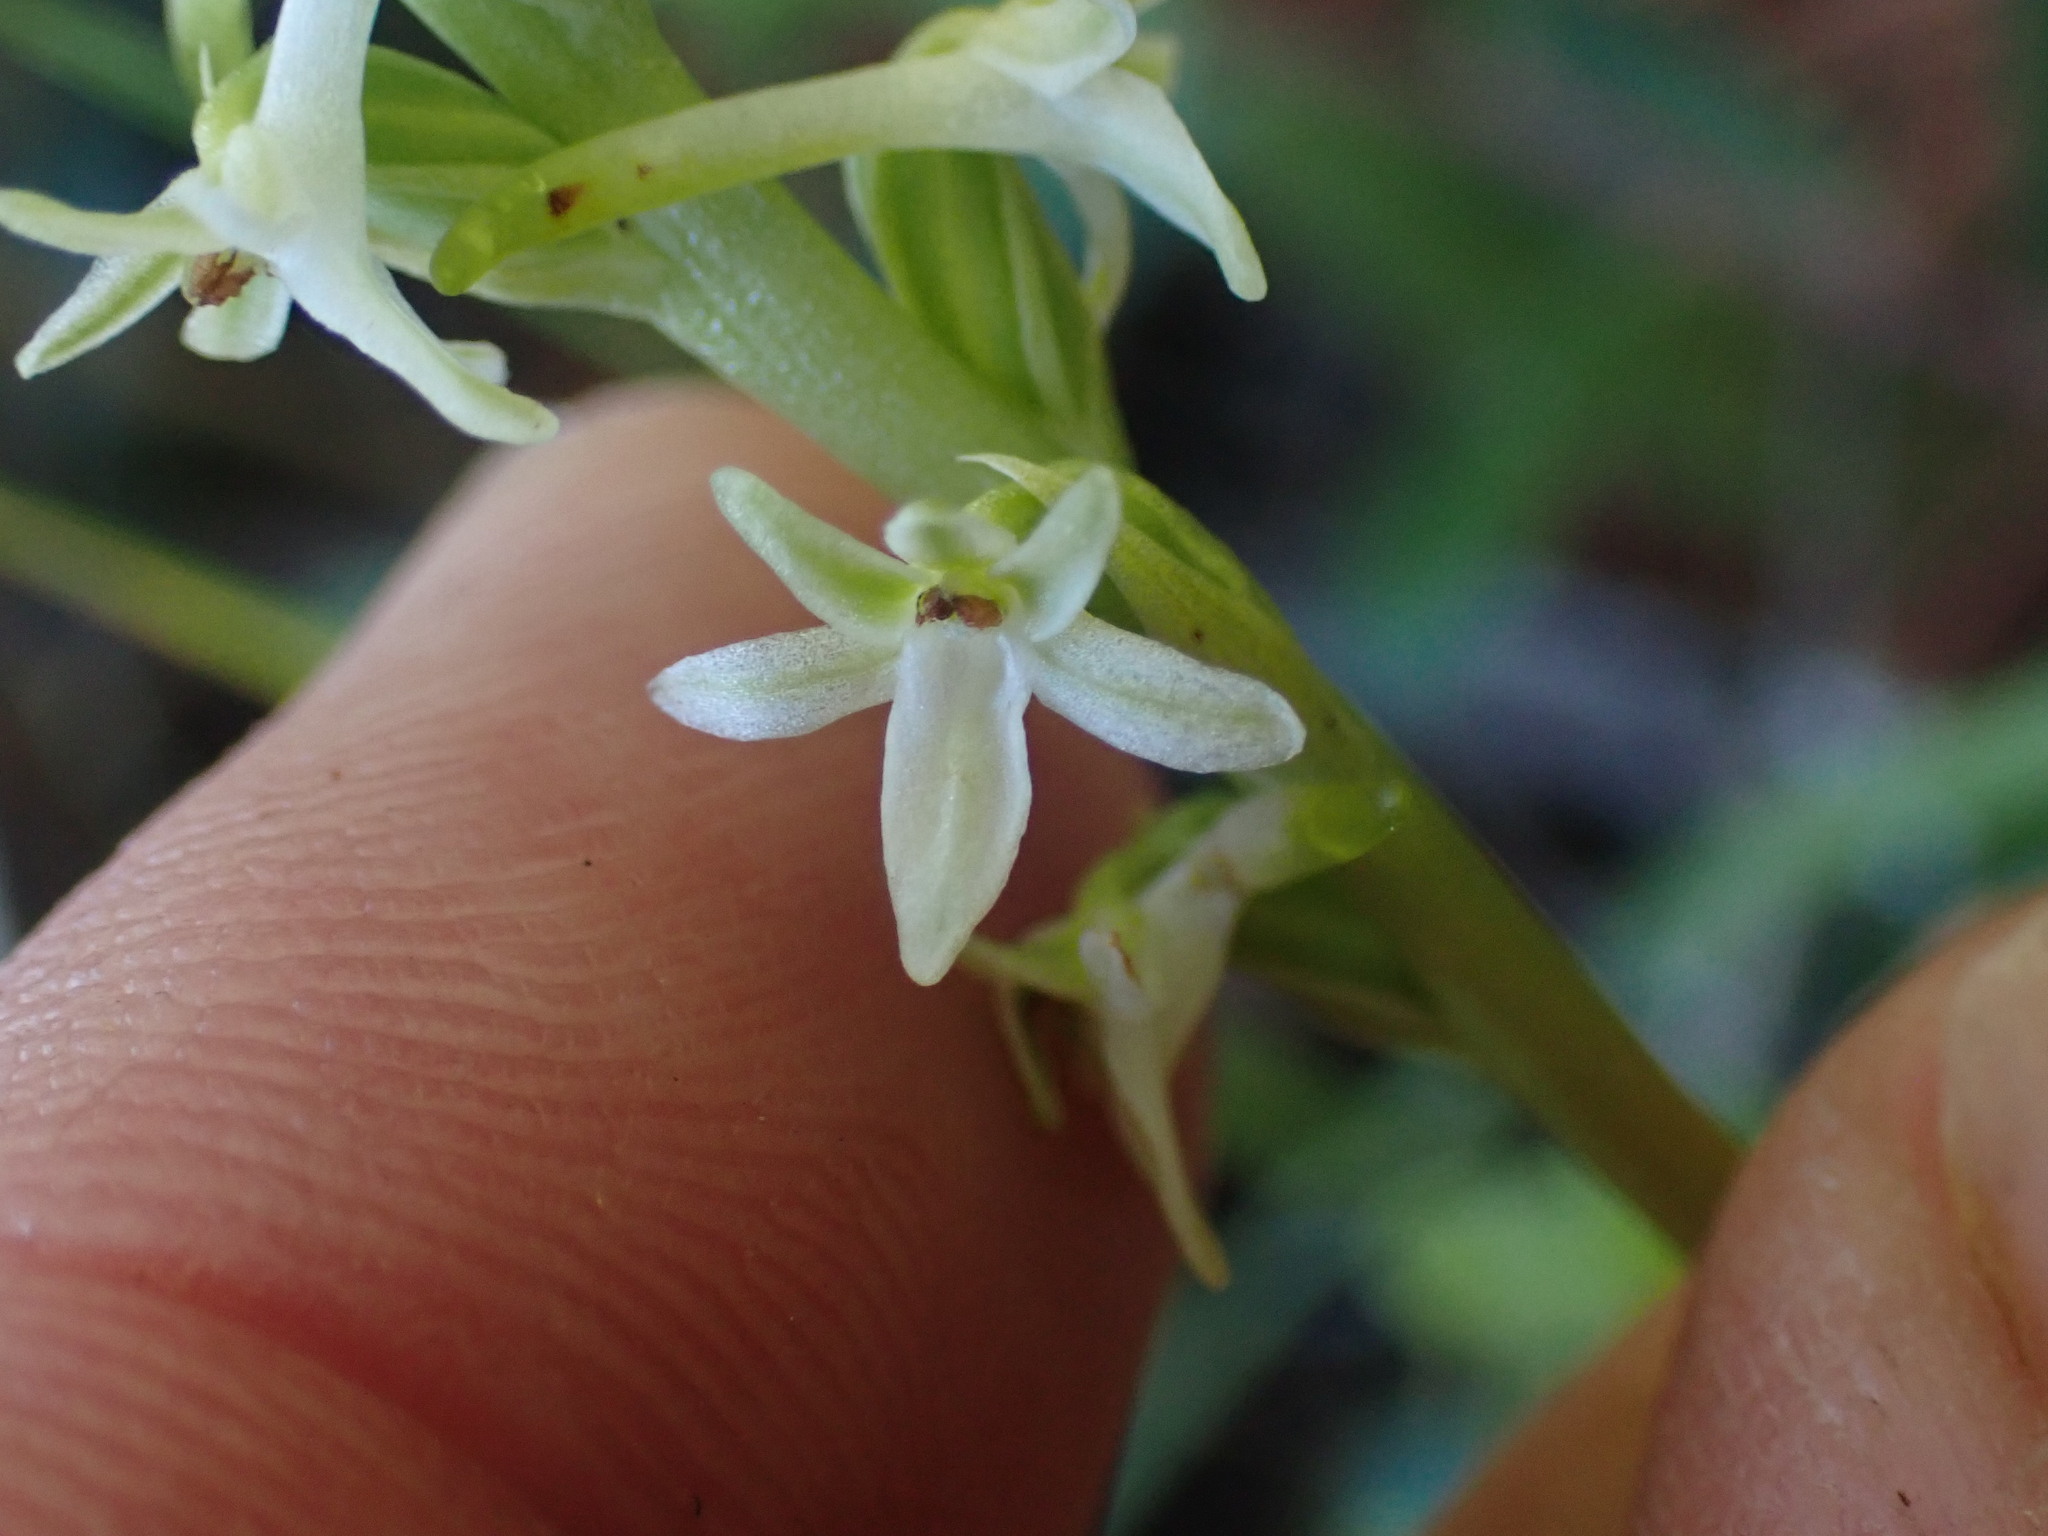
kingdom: Plantae
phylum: Tracheophyta
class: Liliopsida
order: Asparagales
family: Orchidaceae
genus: Platanthera
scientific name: Platanthera transversa
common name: Royal rein orchid
